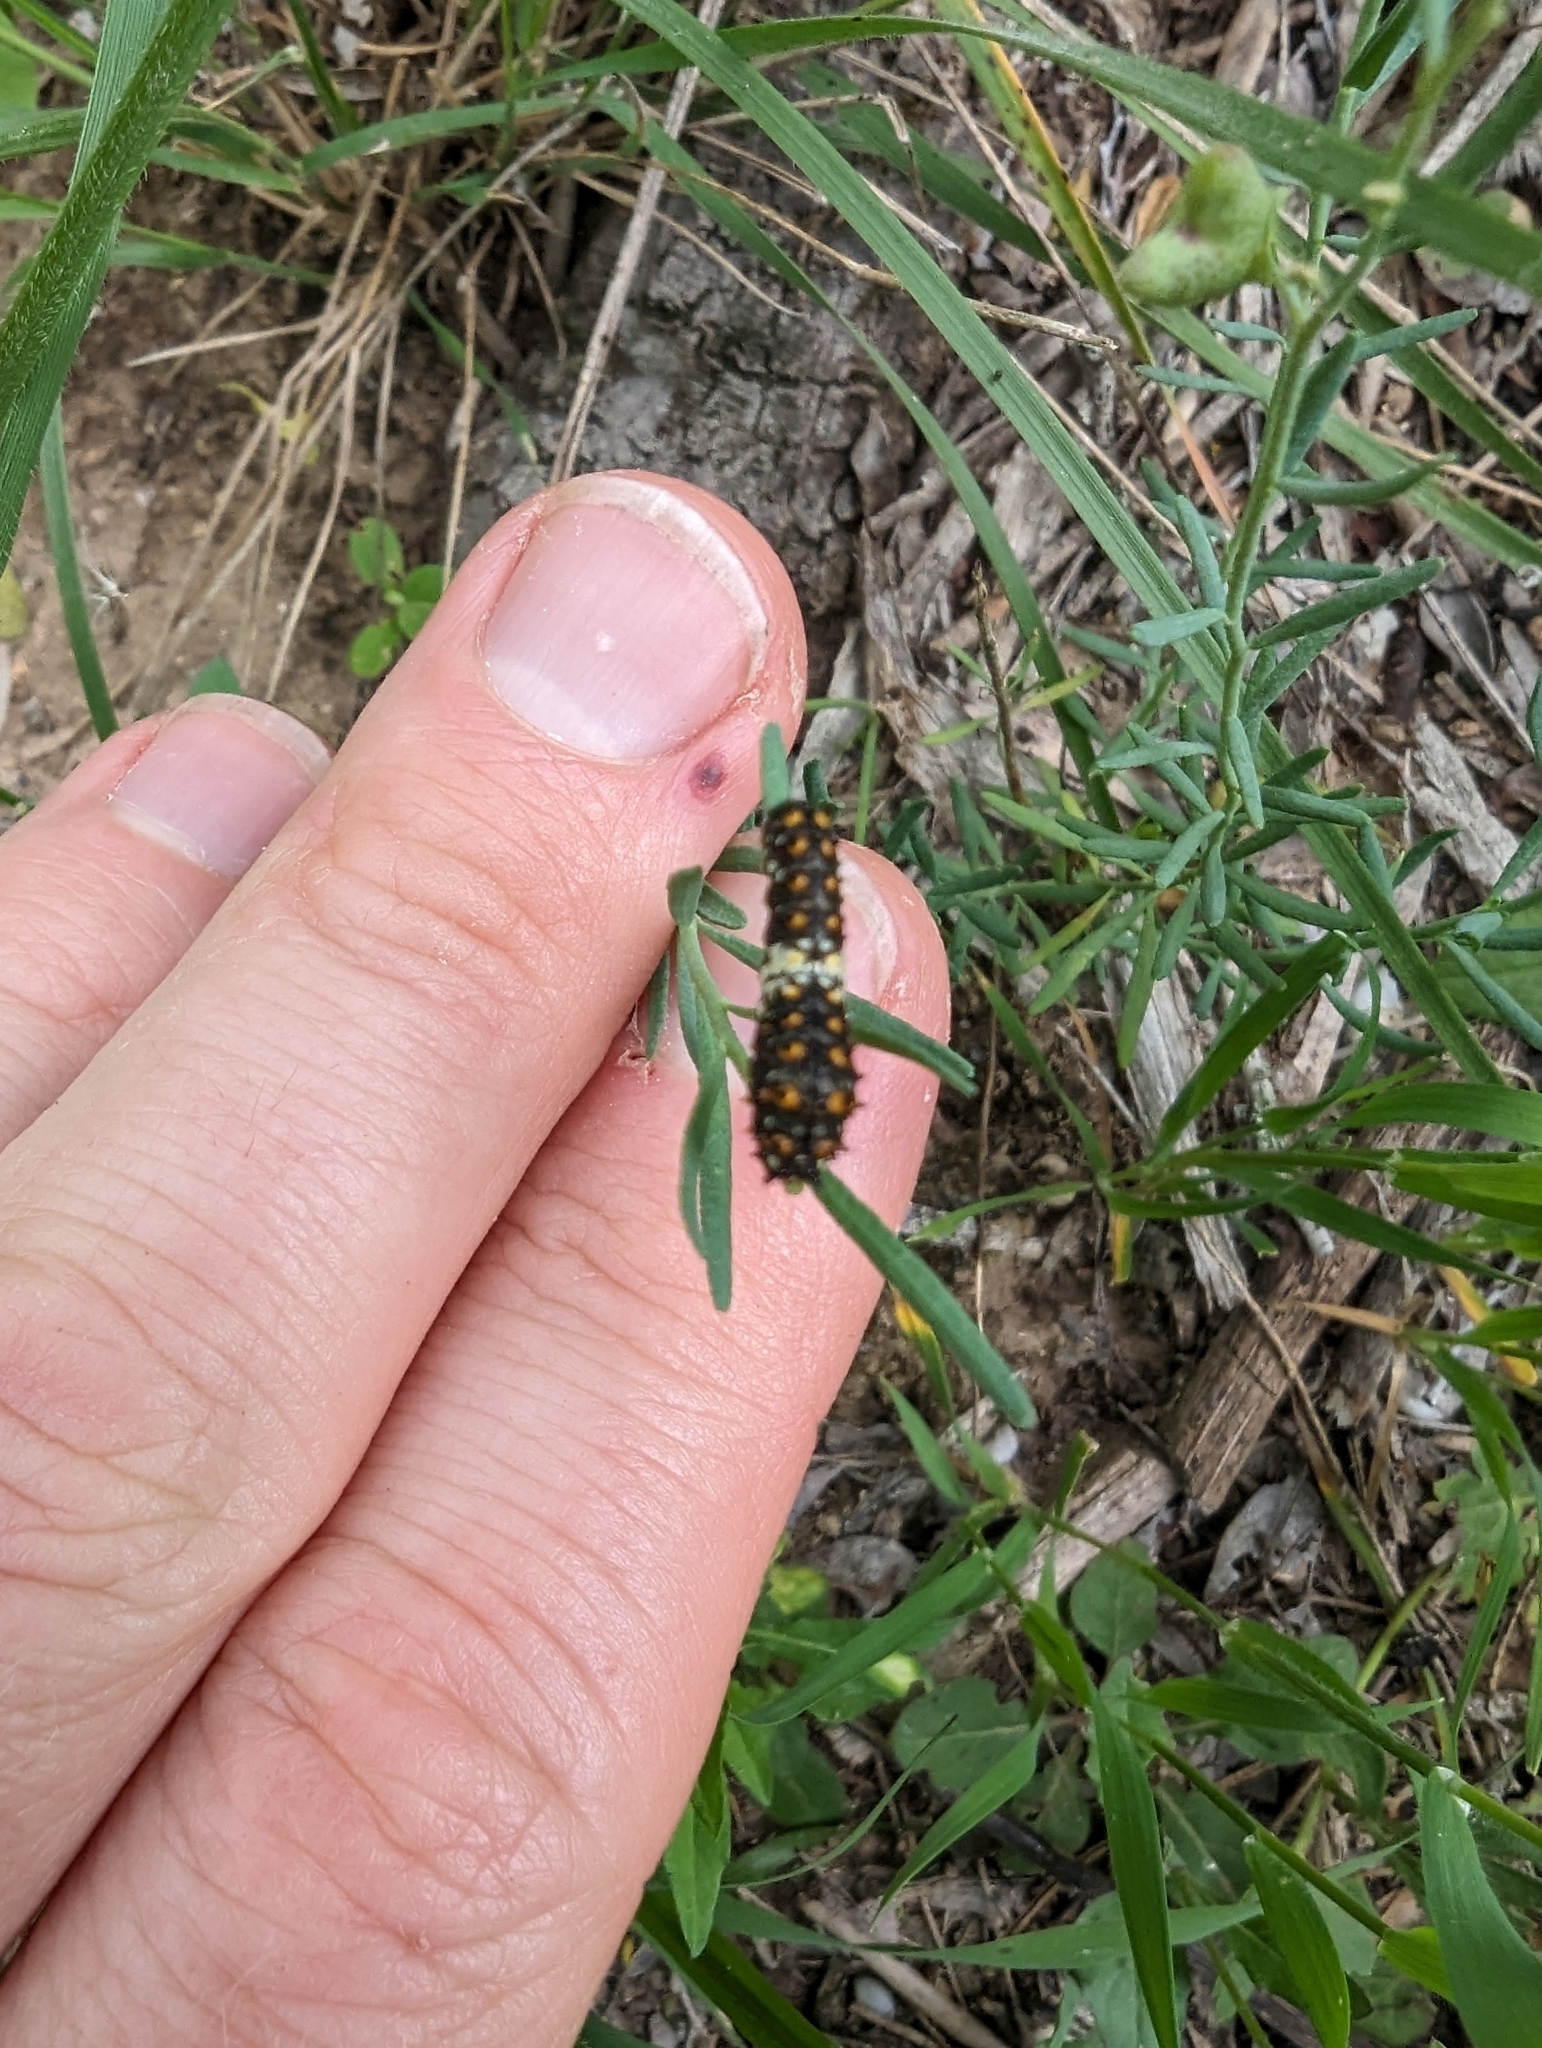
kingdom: Animalia
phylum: Arthropoda
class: Insecta
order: Lepidoptera
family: Papilionidae
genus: Papilio
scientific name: Papilio polyxenes
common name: Black swallowtail
